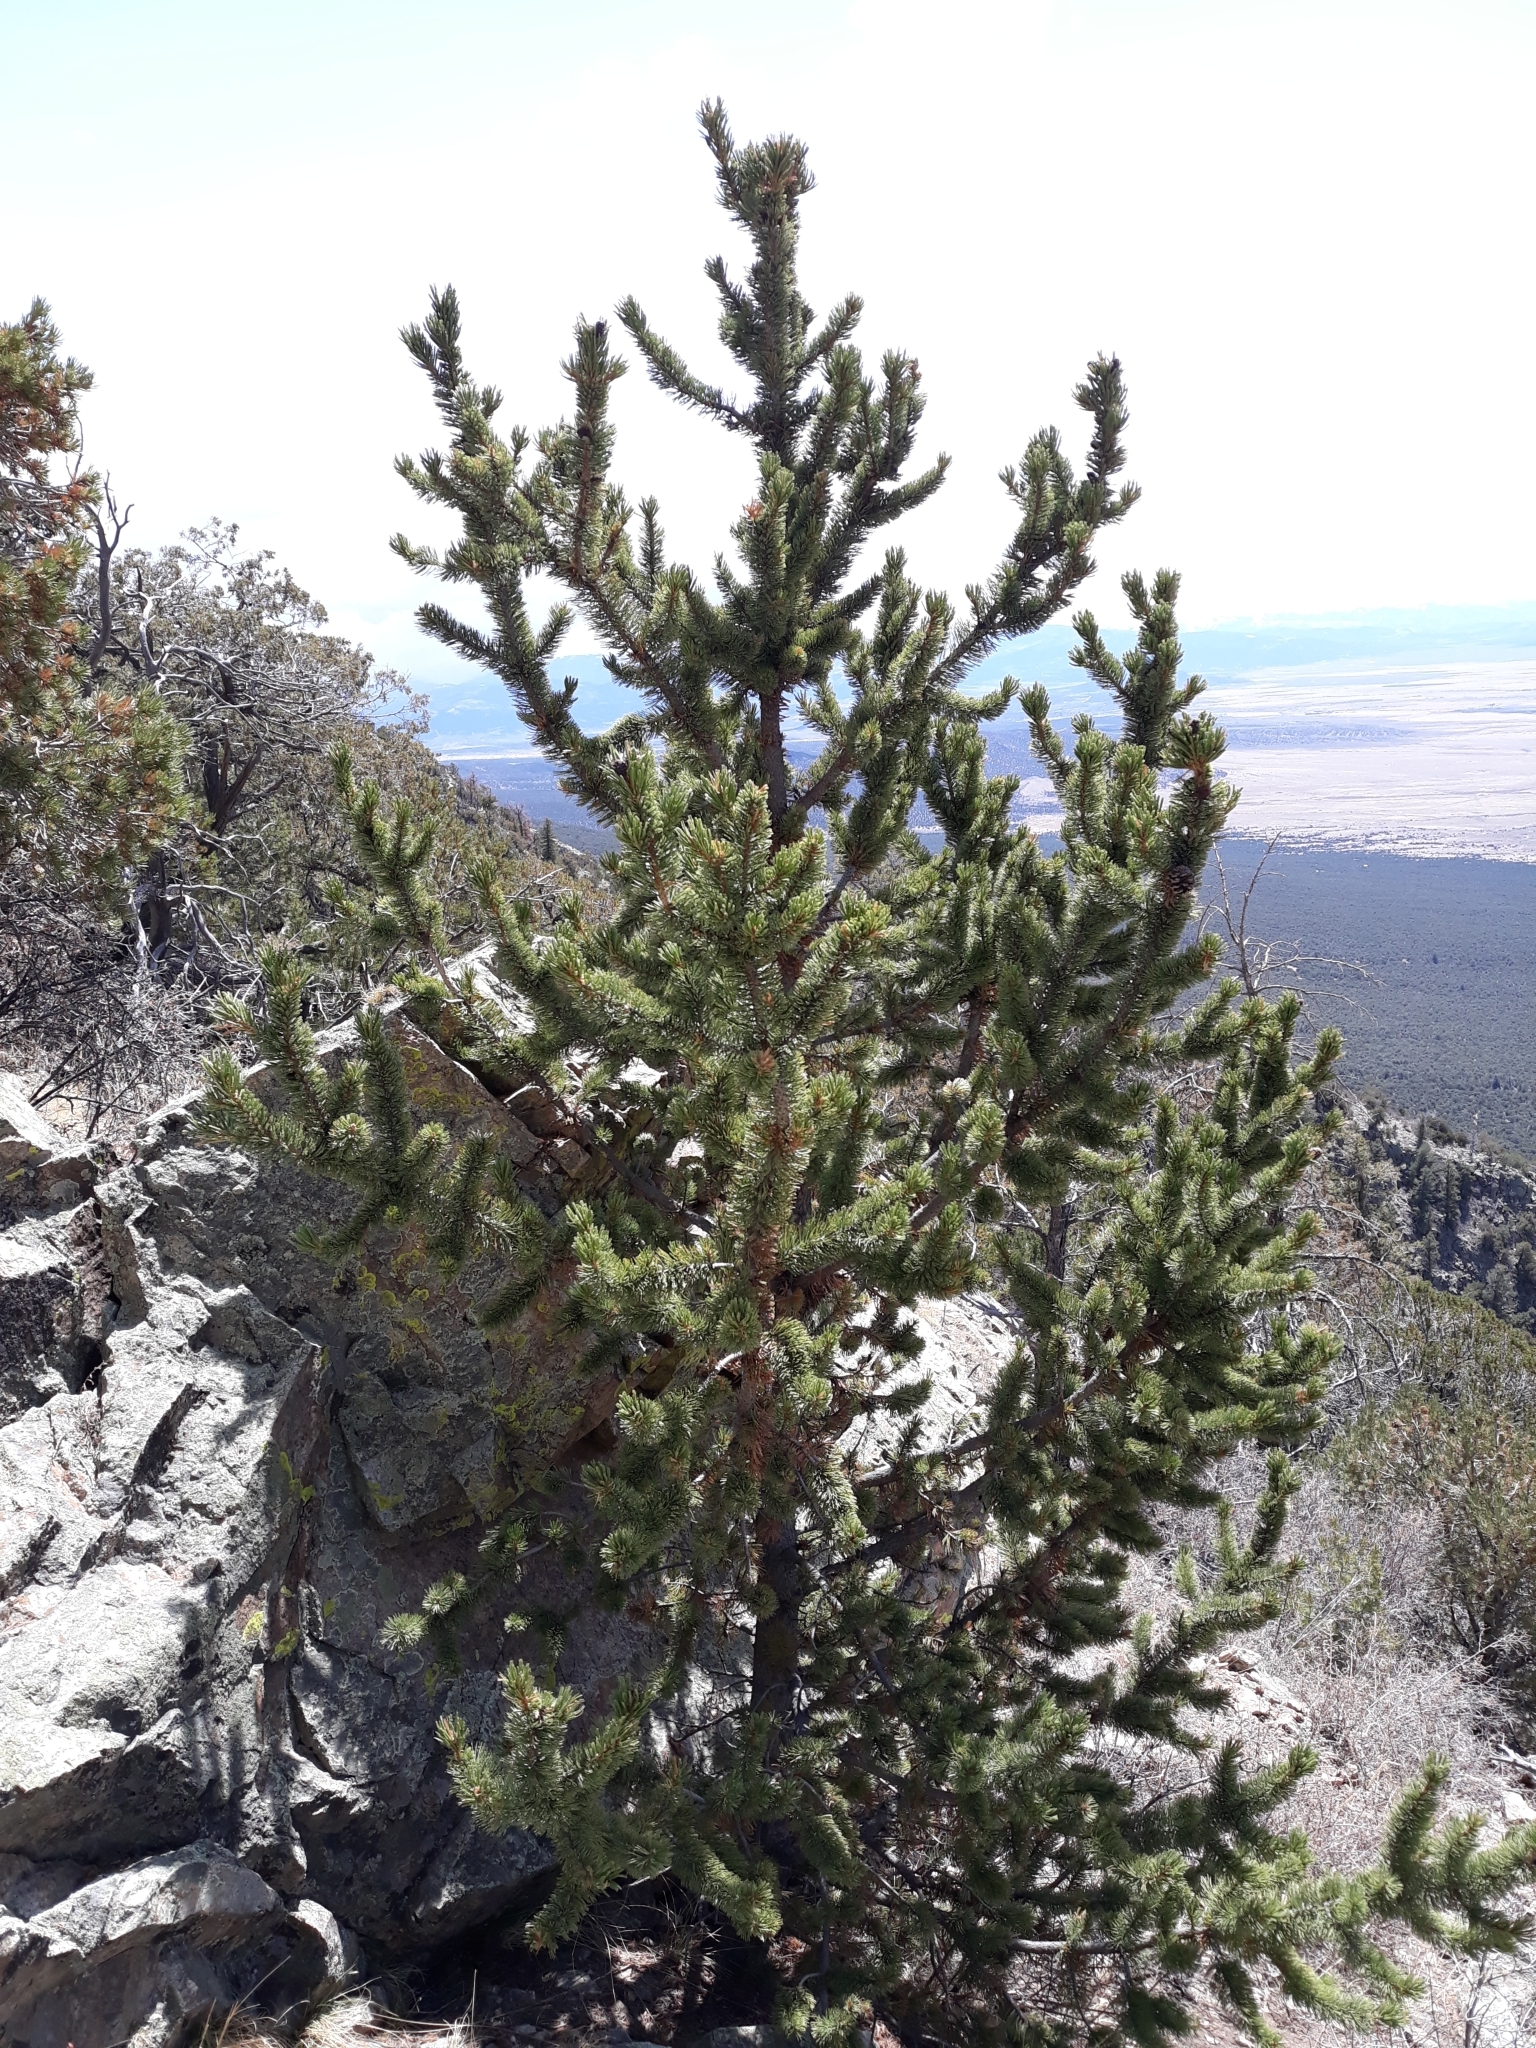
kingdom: Plantae
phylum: Tracheophyta
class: Pinopsida
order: Pinales
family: Pinaceae
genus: Pinus
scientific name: Pinus aristata
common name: Colorado bristlecone pine
